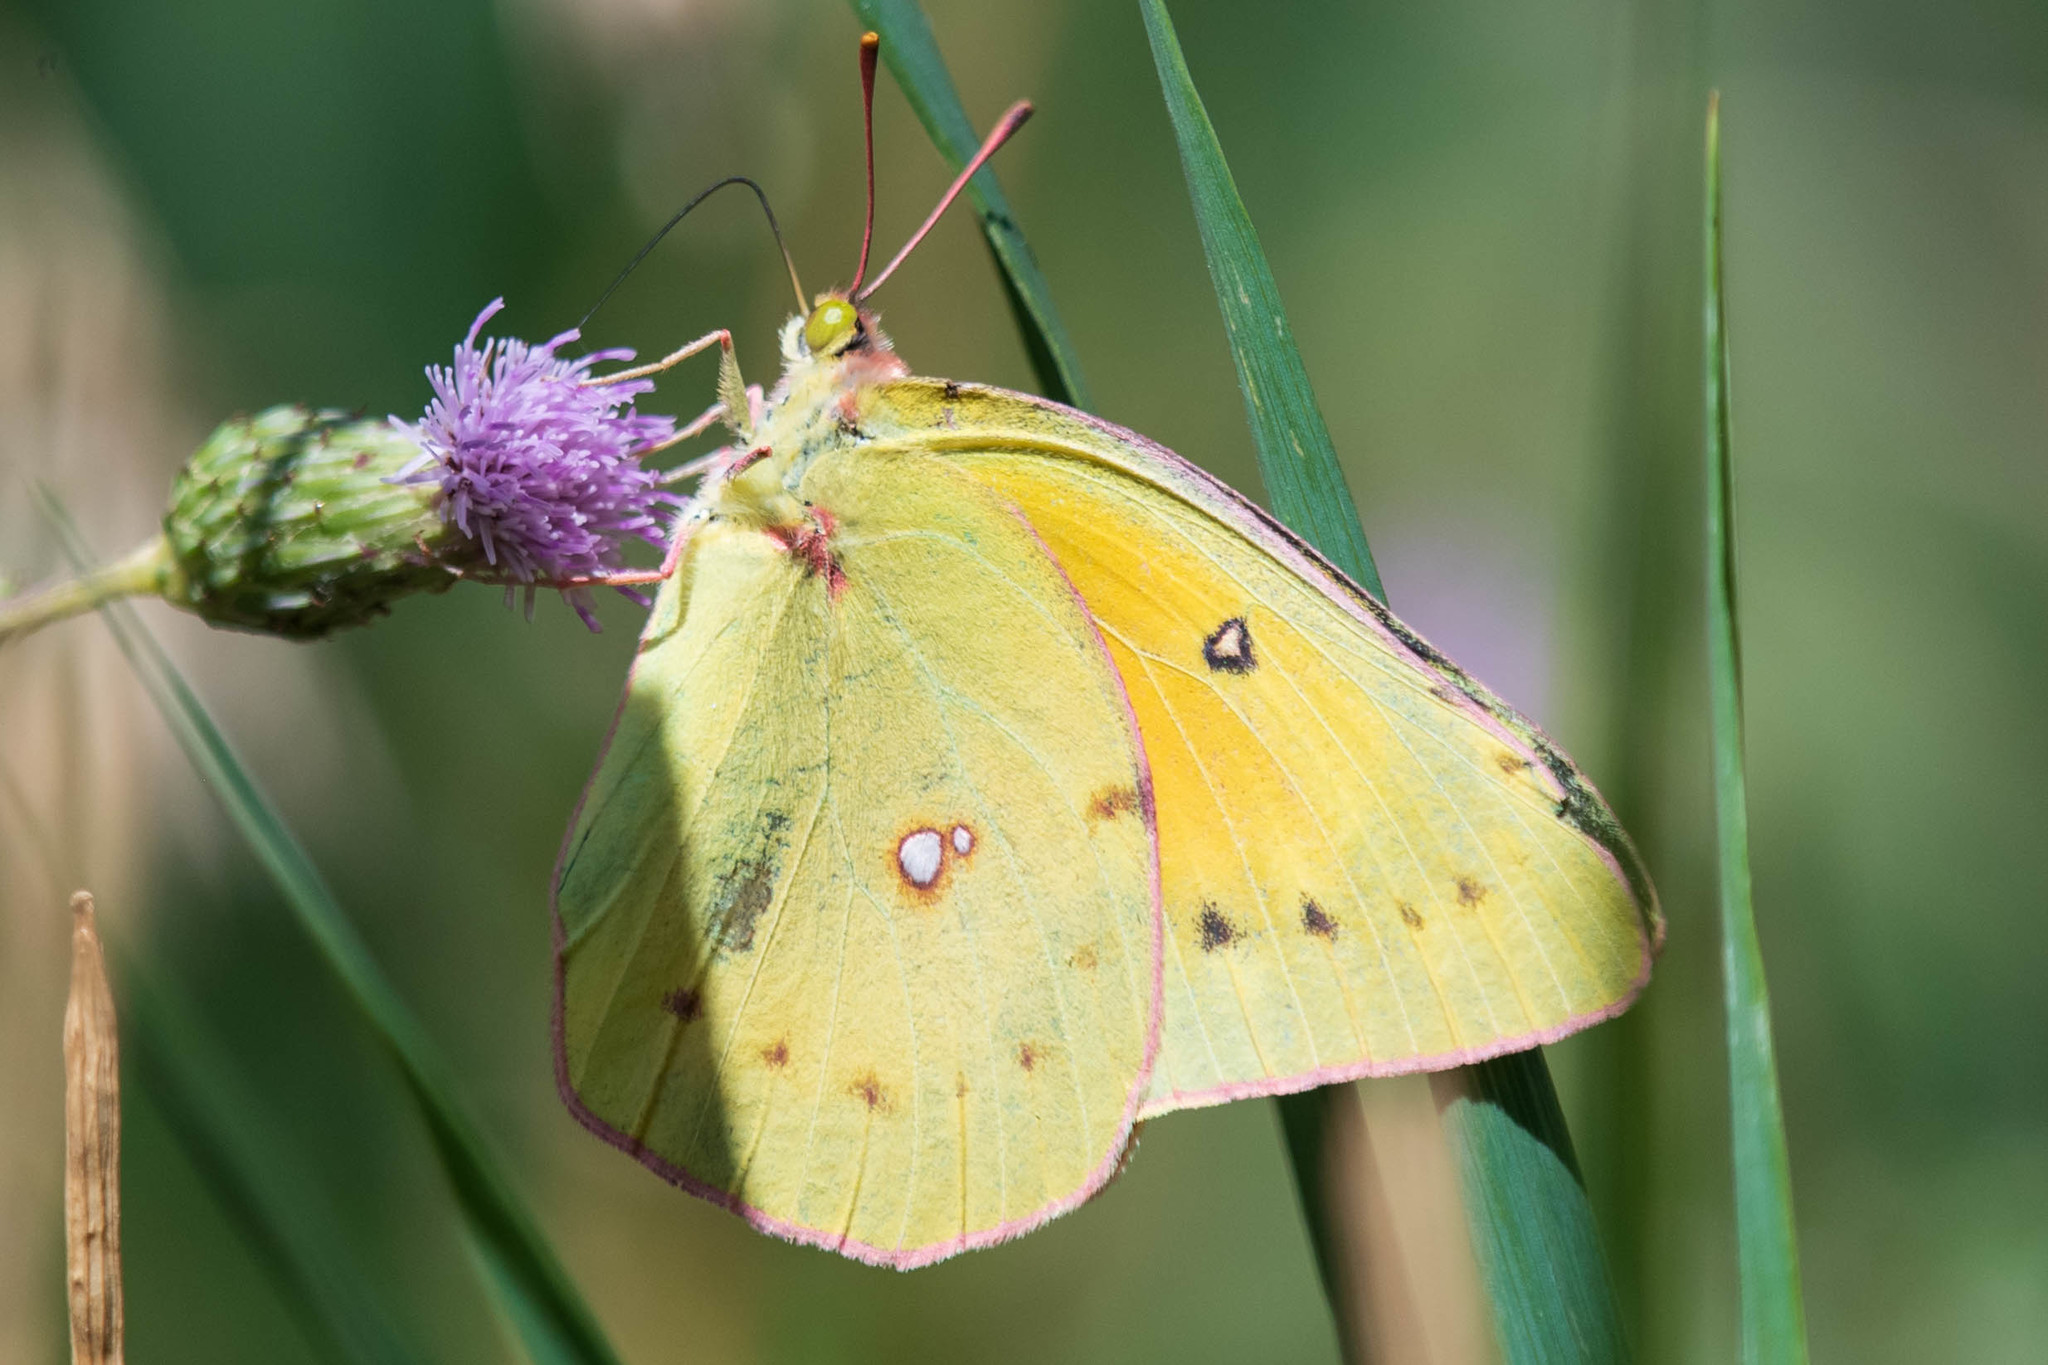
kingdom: Animalia
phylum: Arthropoda
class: Insecta
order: Lepidoptera
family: Pieridae
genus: Colias
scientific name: Colias eurytheme
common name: Alfalfa butterfly
